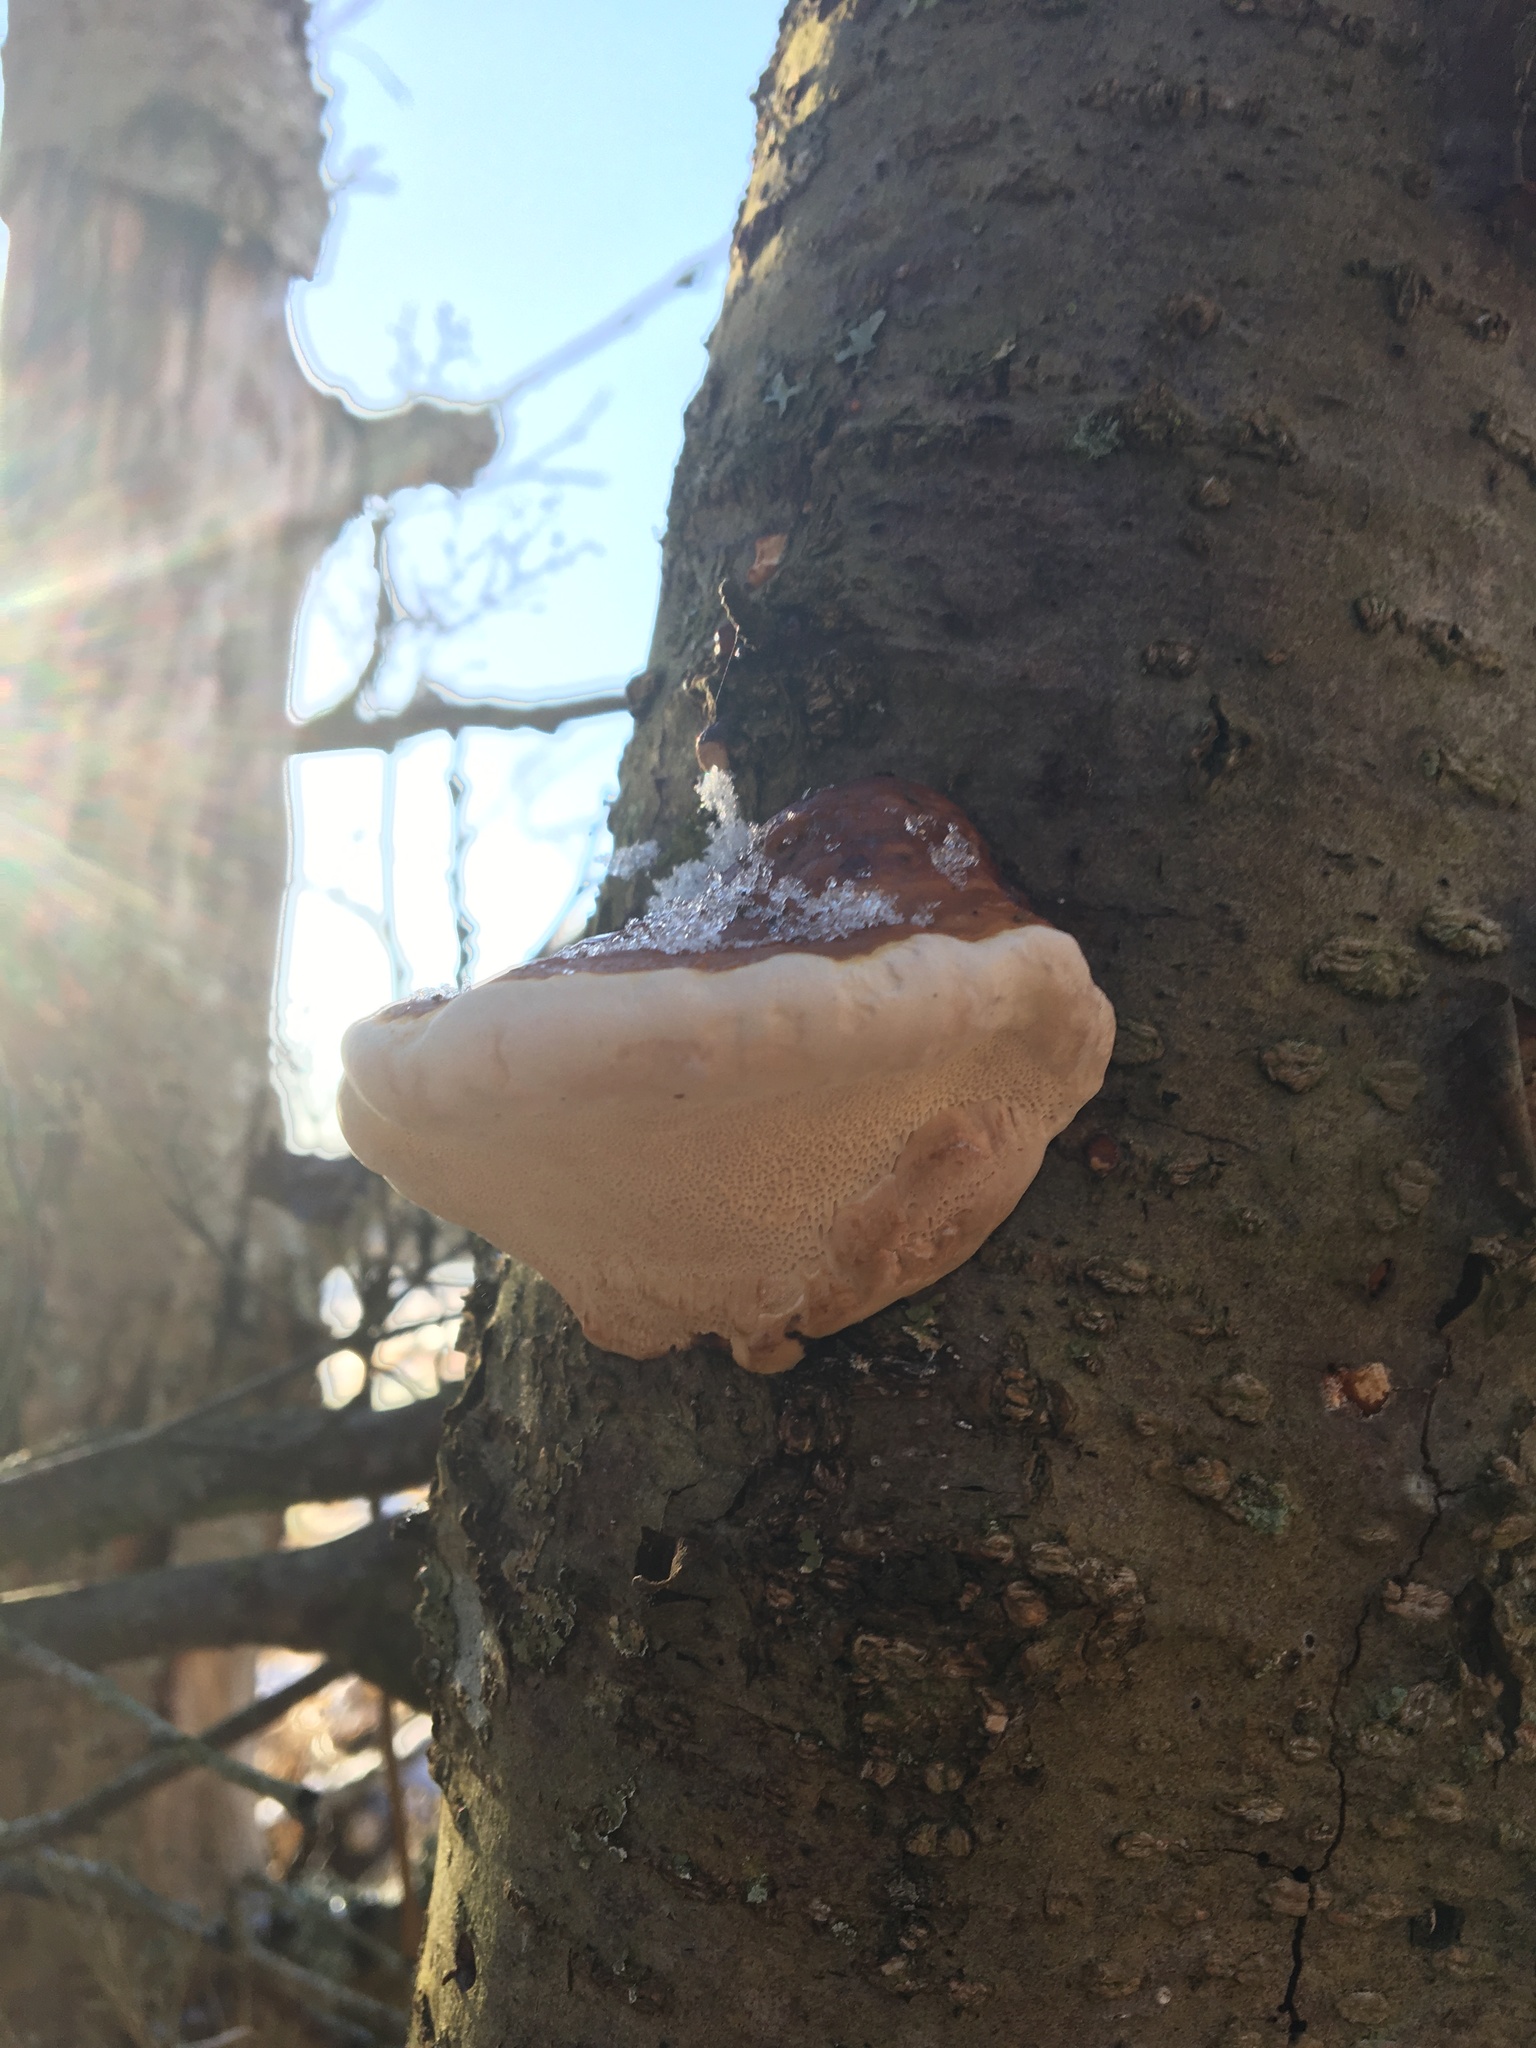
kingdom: Fungi
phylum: Basidiomycota
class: Agaricomycetes
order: Polyporales
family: Fomitopsidaceae
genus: Fomitopsis
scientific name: Fomitopsis pinicola
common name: Red-belted bracket
